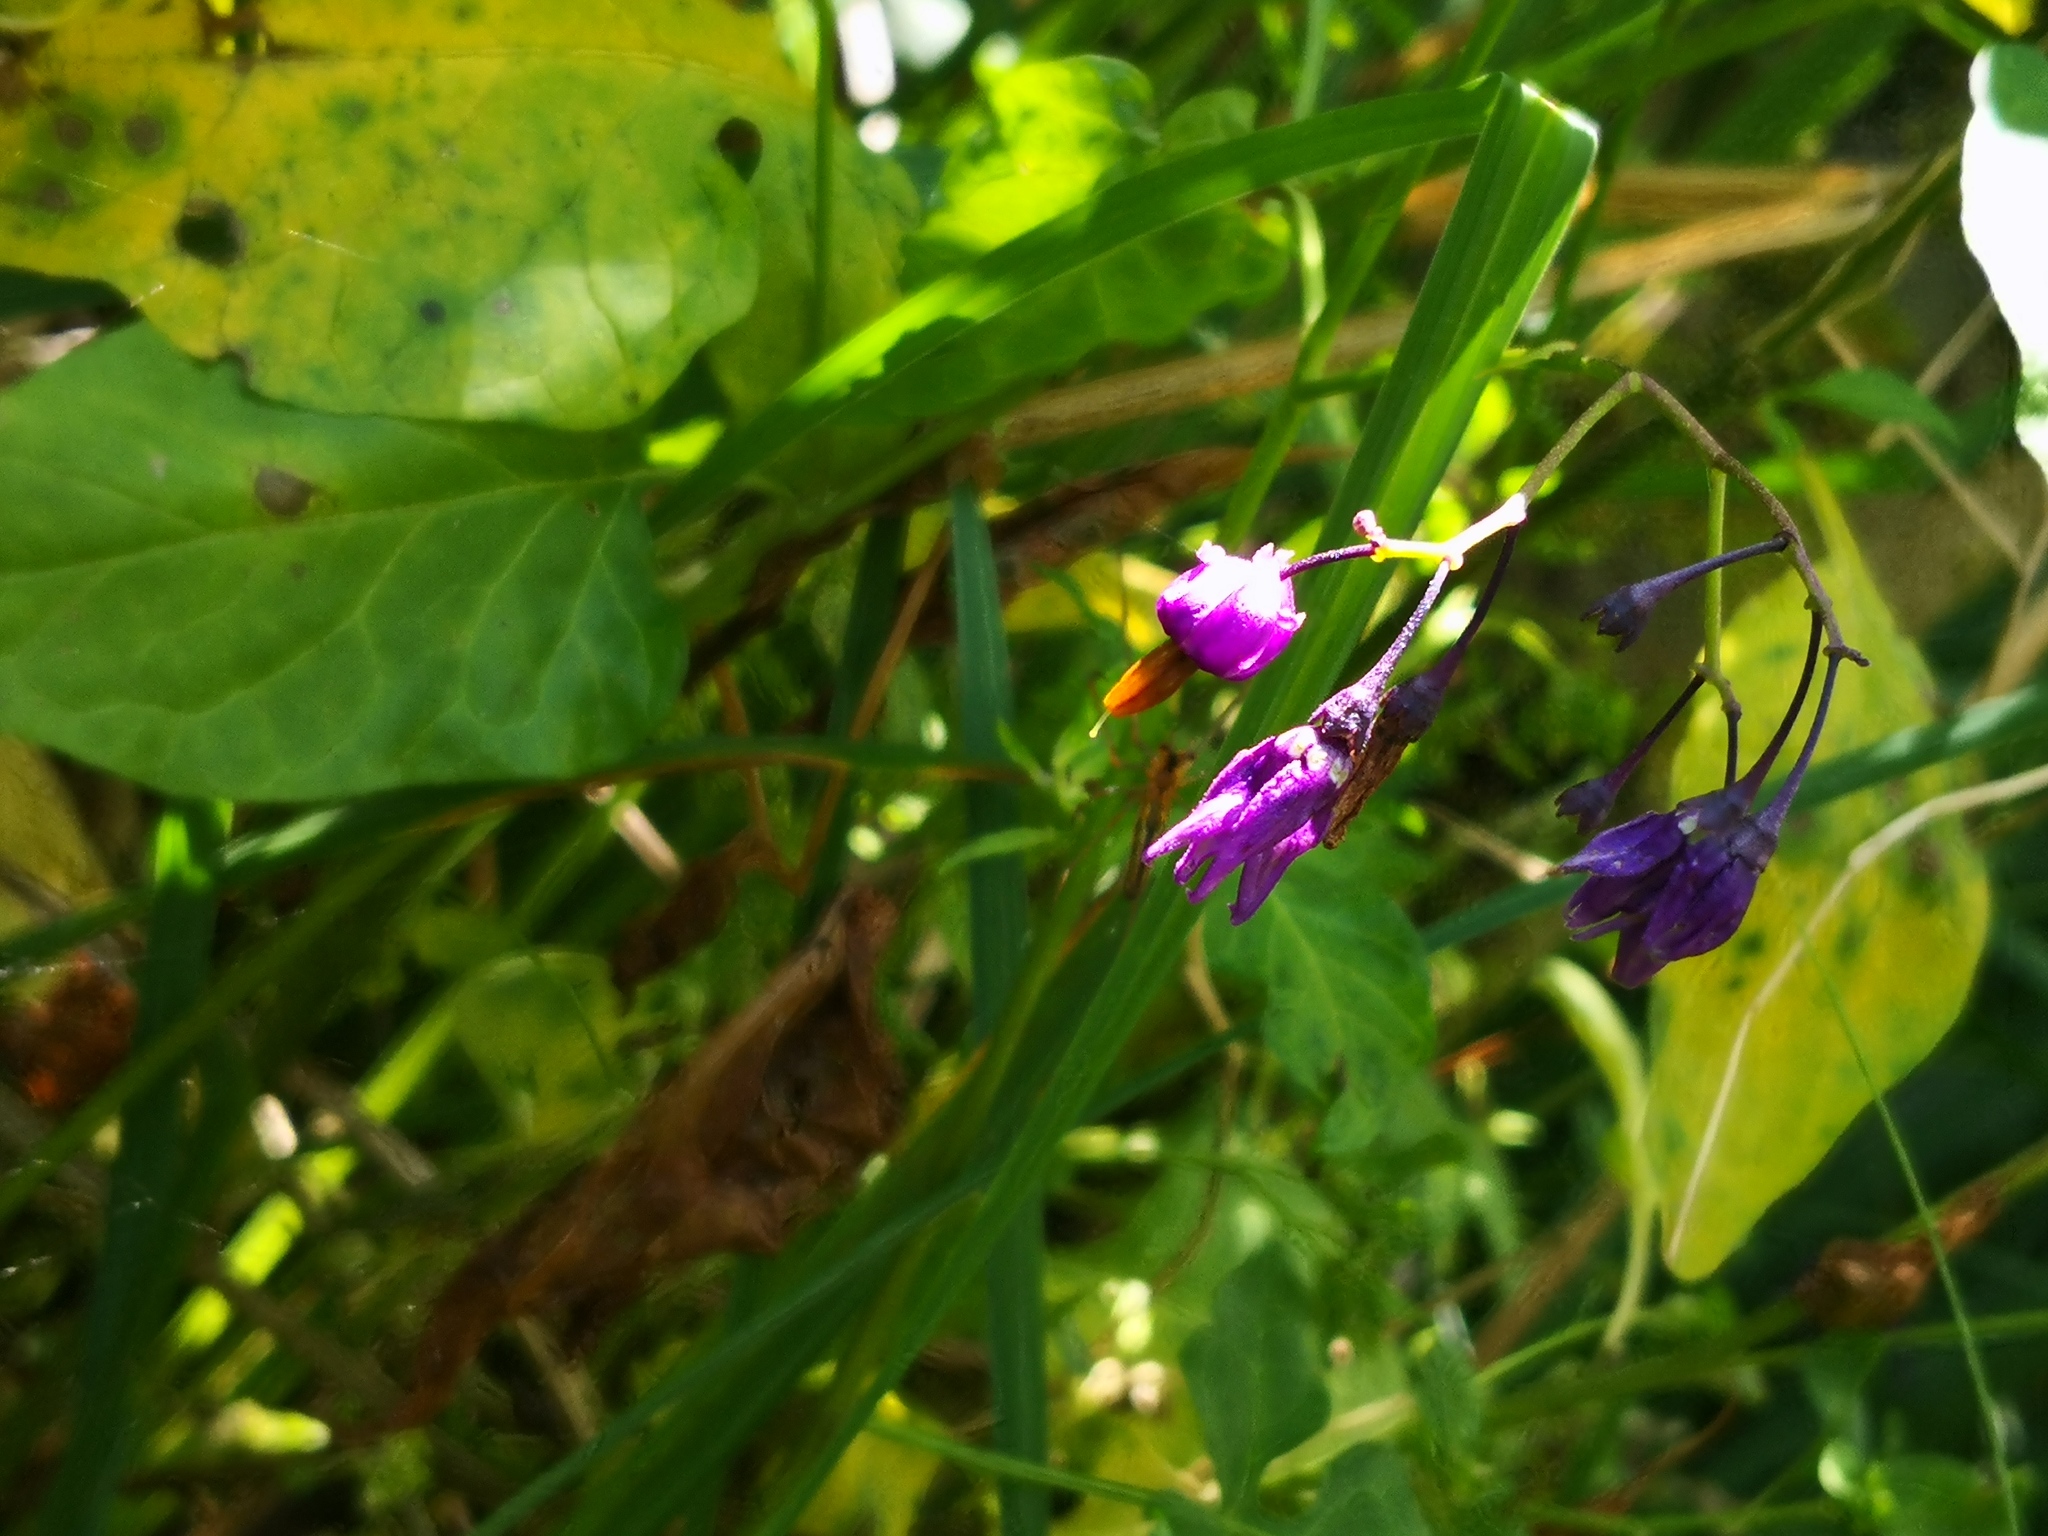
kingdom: Plantae
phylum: Tracheophyta
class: Magnoliopsida
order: Solanales
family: Solanaceae
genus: Solanum
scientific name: Solanum dulcamara
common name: Climbing nightshade
